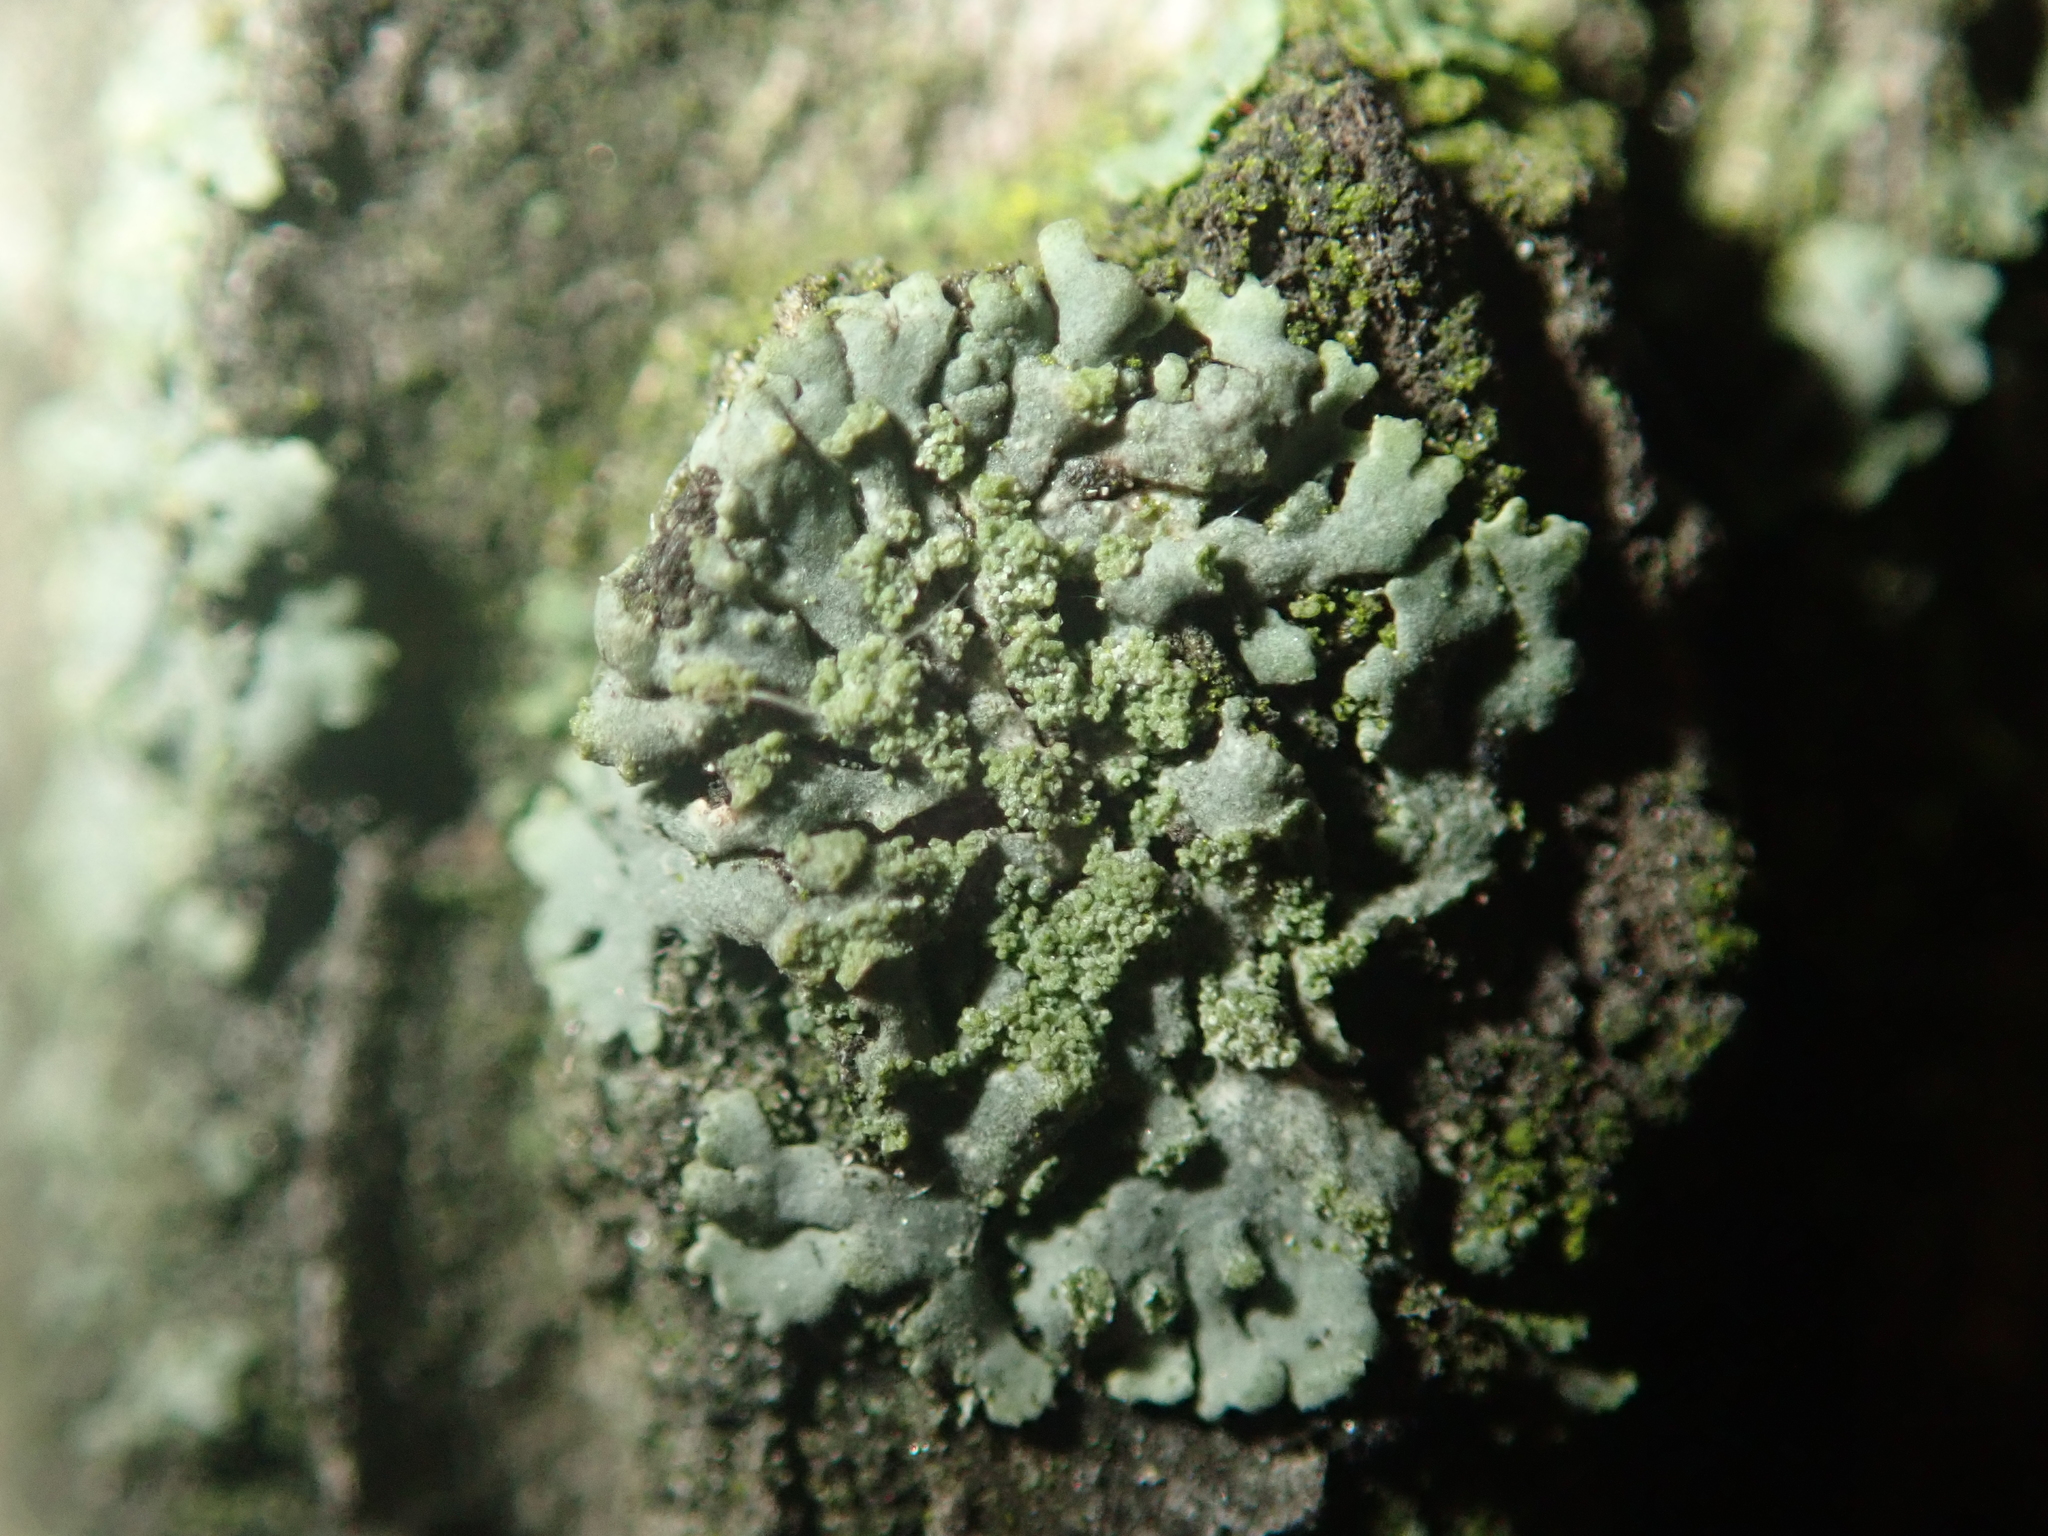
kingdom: Fungi
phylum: Ascomycota
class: Lecanoromycetes
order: Caliciales
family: Physciaceae
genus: Phaeophyscia
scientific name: Phaeophyscia orbicularis
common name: Mealy shadow lichen
